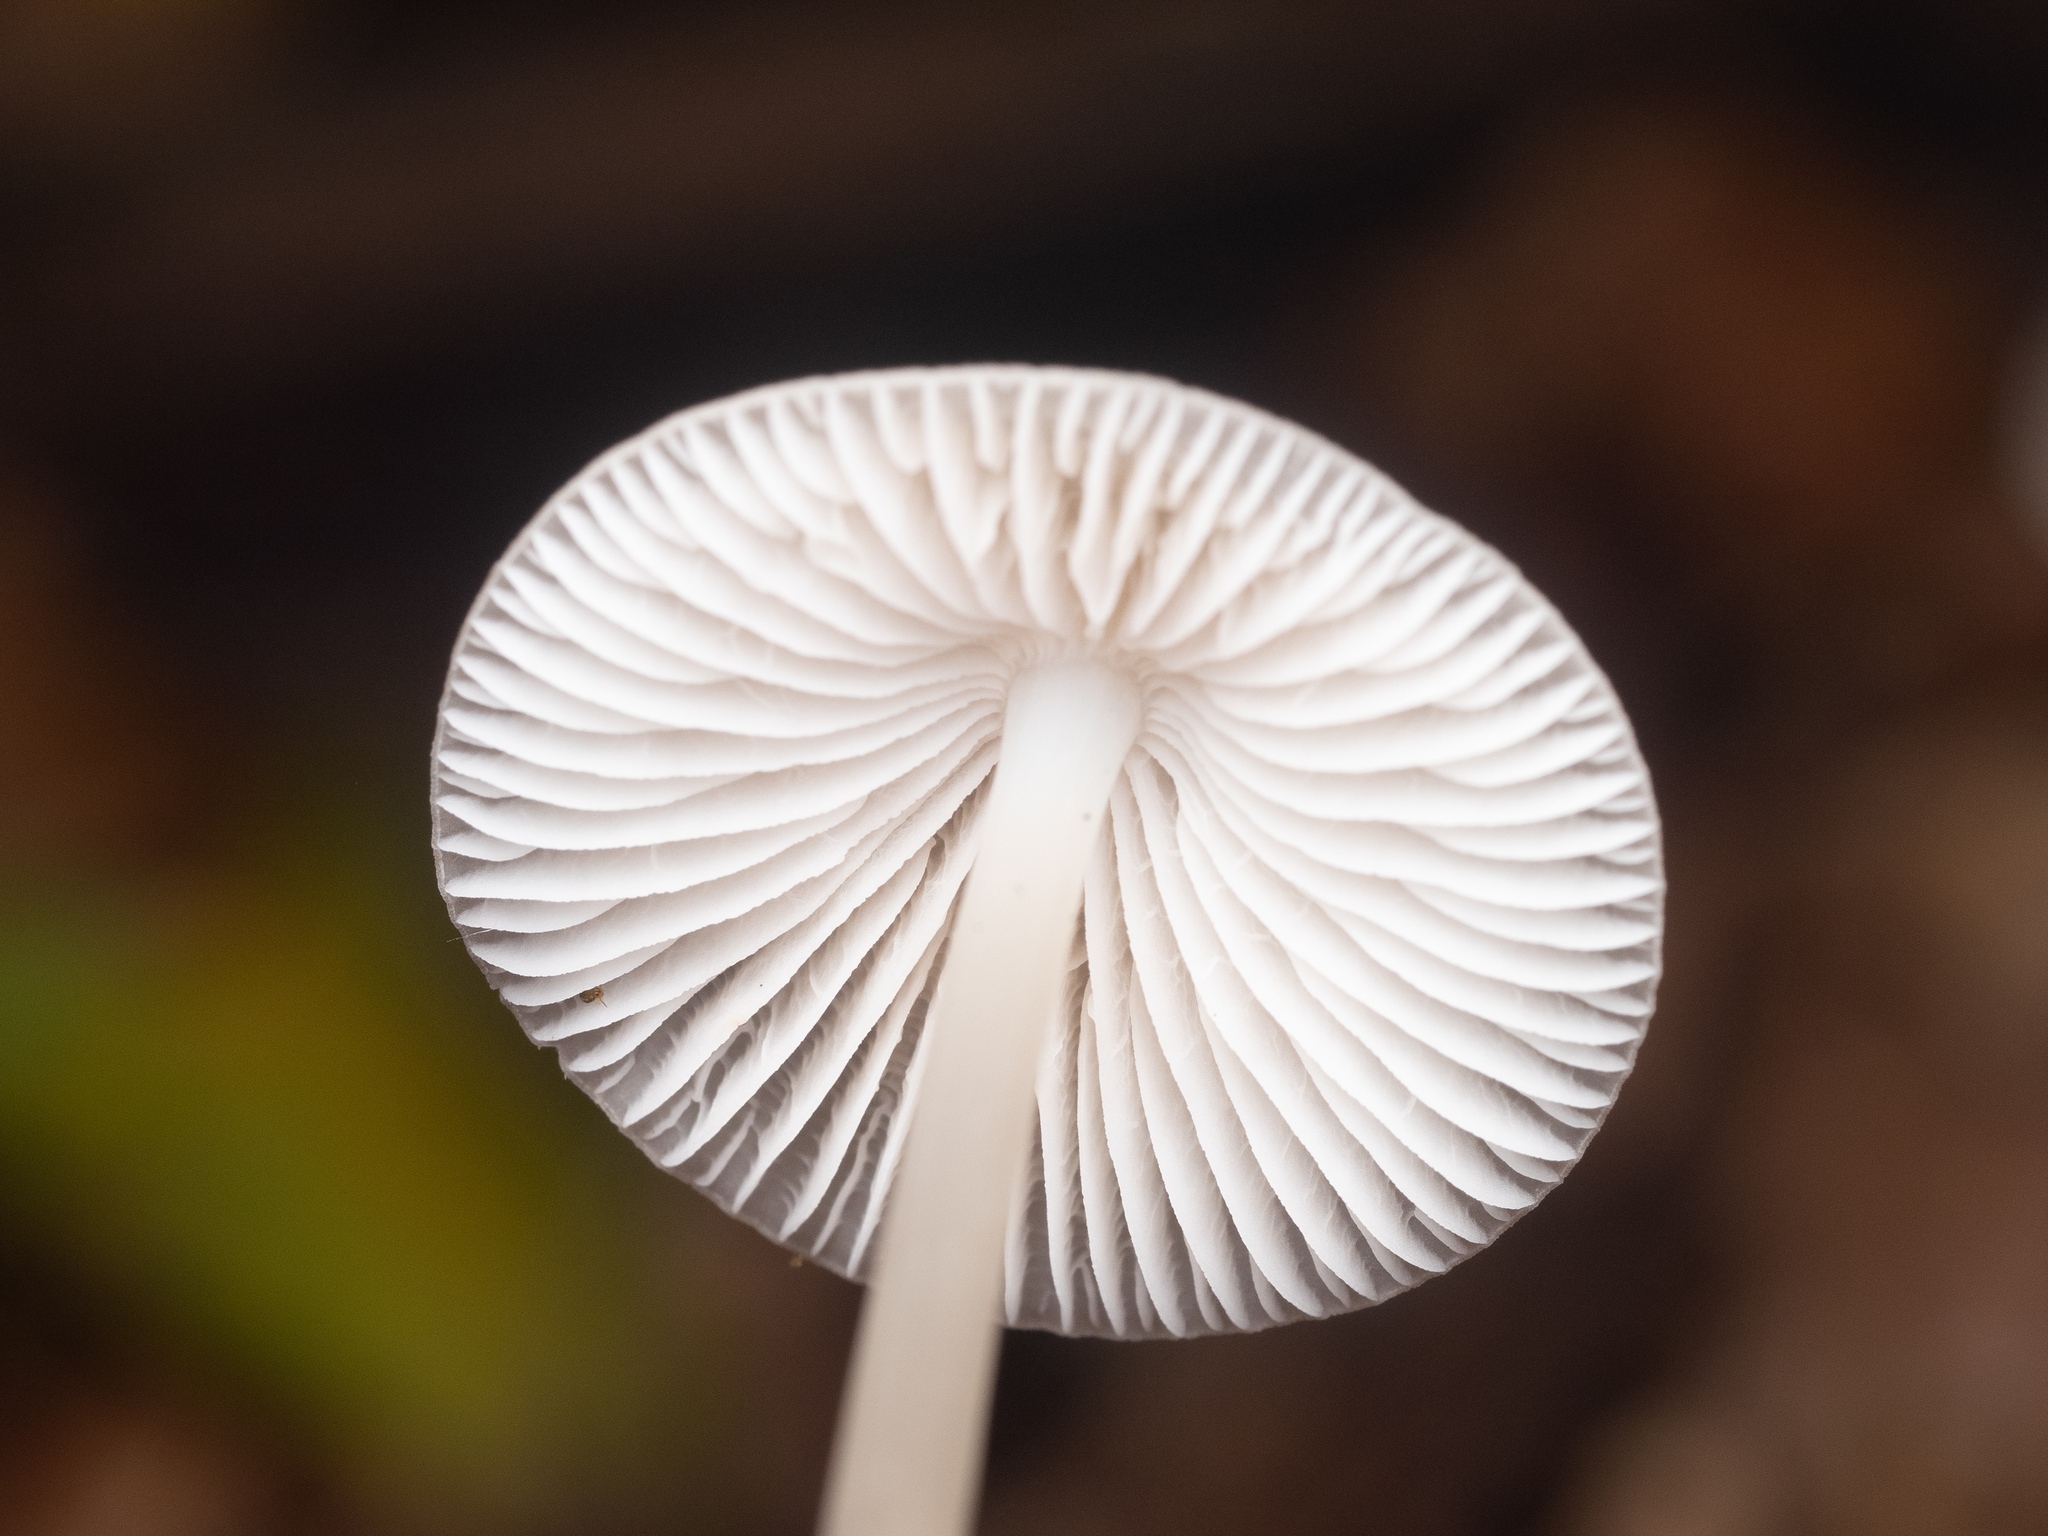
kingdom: Fungi
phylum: Basidiomycota
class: Agaricomycetes
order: Agaricales
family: Mycenaceae
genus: Mycena
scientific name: Mycena galericulata
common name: Bonnet mycena
